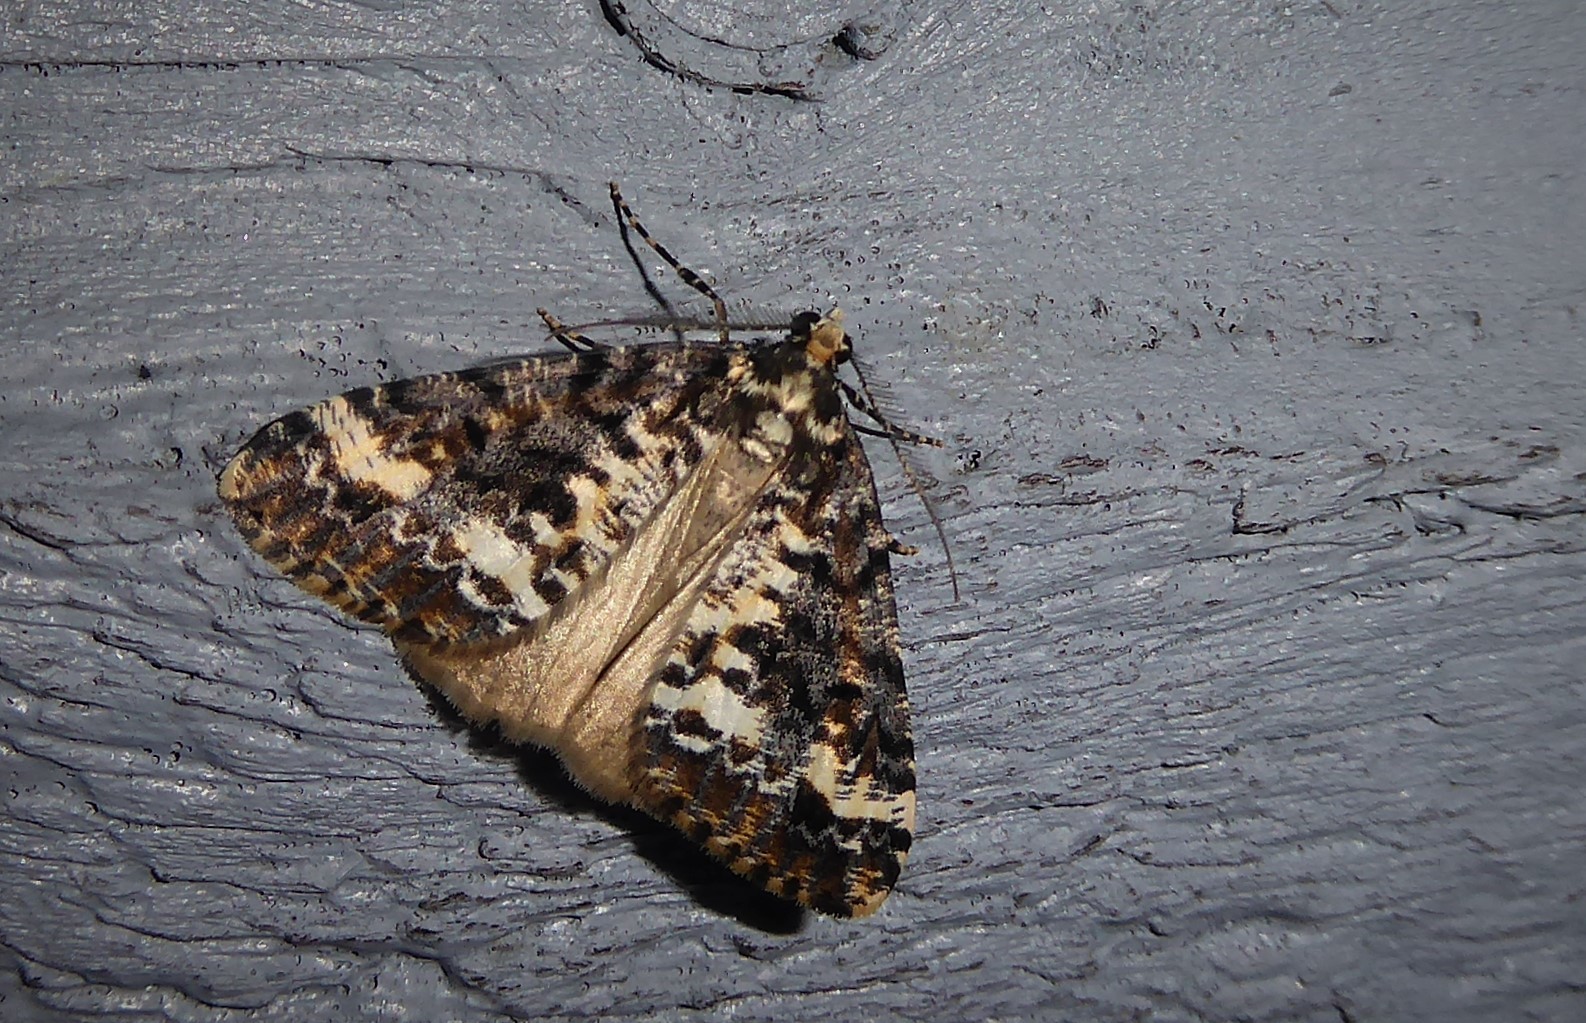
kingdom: Animalia
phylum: Arthropoda
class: Insecta
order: Lepidoptera
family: Geometridae
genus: Pseudocoremia
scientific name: Pseudocoremia leucelaea
